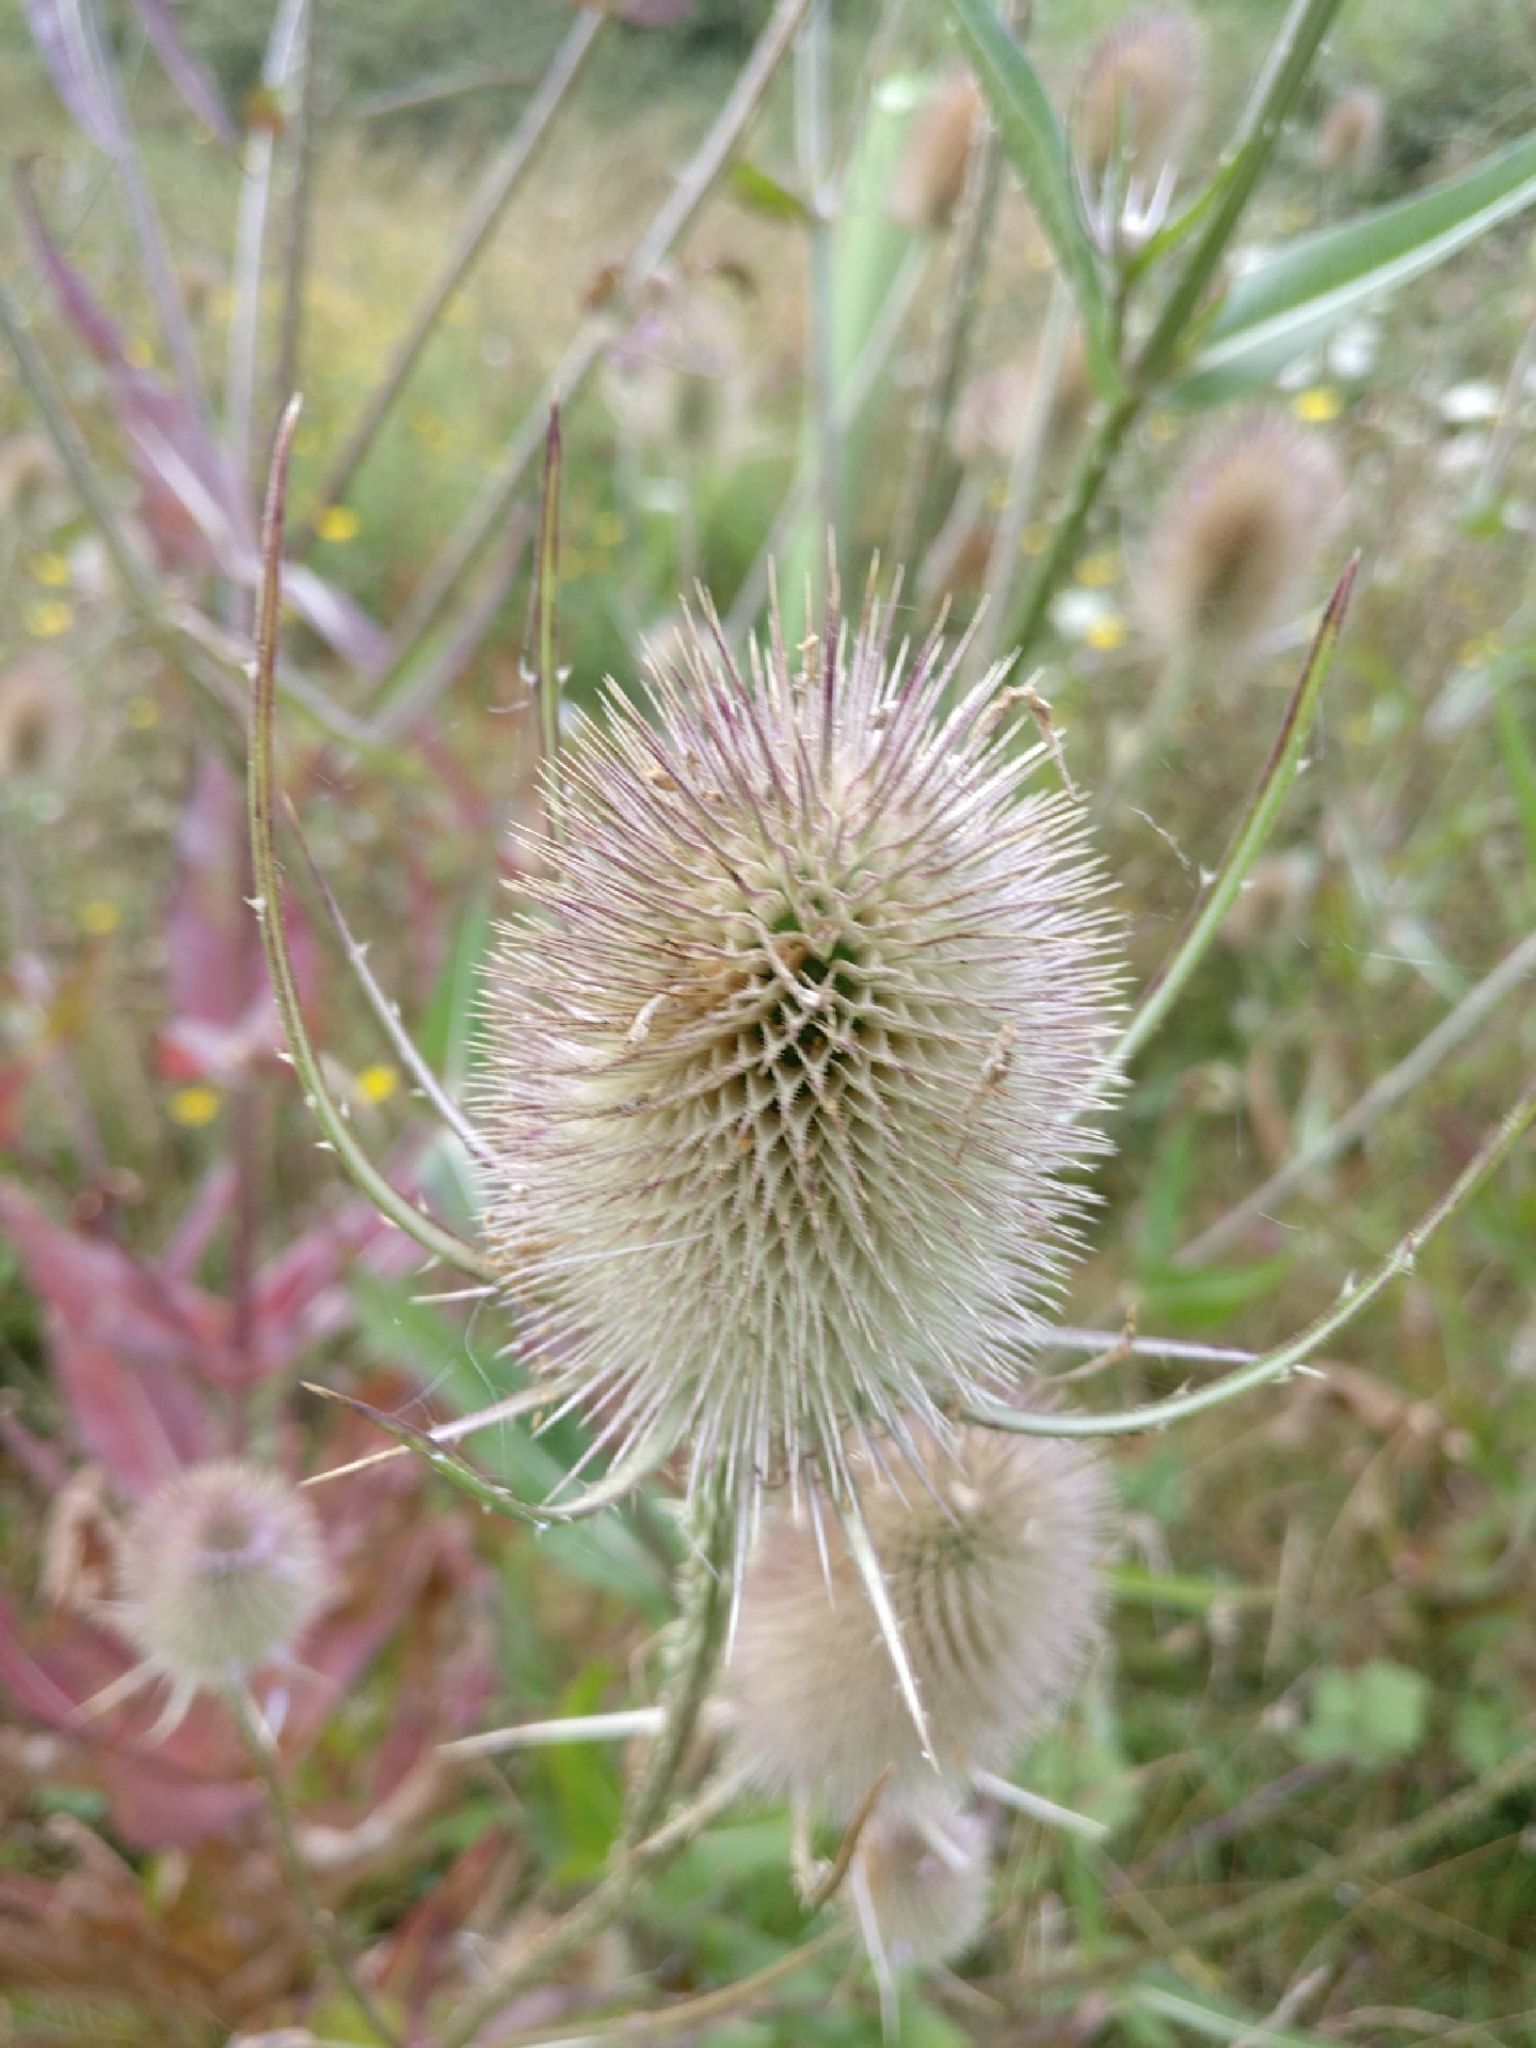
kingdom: Plantae
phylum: Tracheophyta
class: Magnoliopsida
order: Dipsacales
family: Caprifoliaceae
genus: Dipsacus
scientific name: Dipsacus fullonum
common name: Teasel
